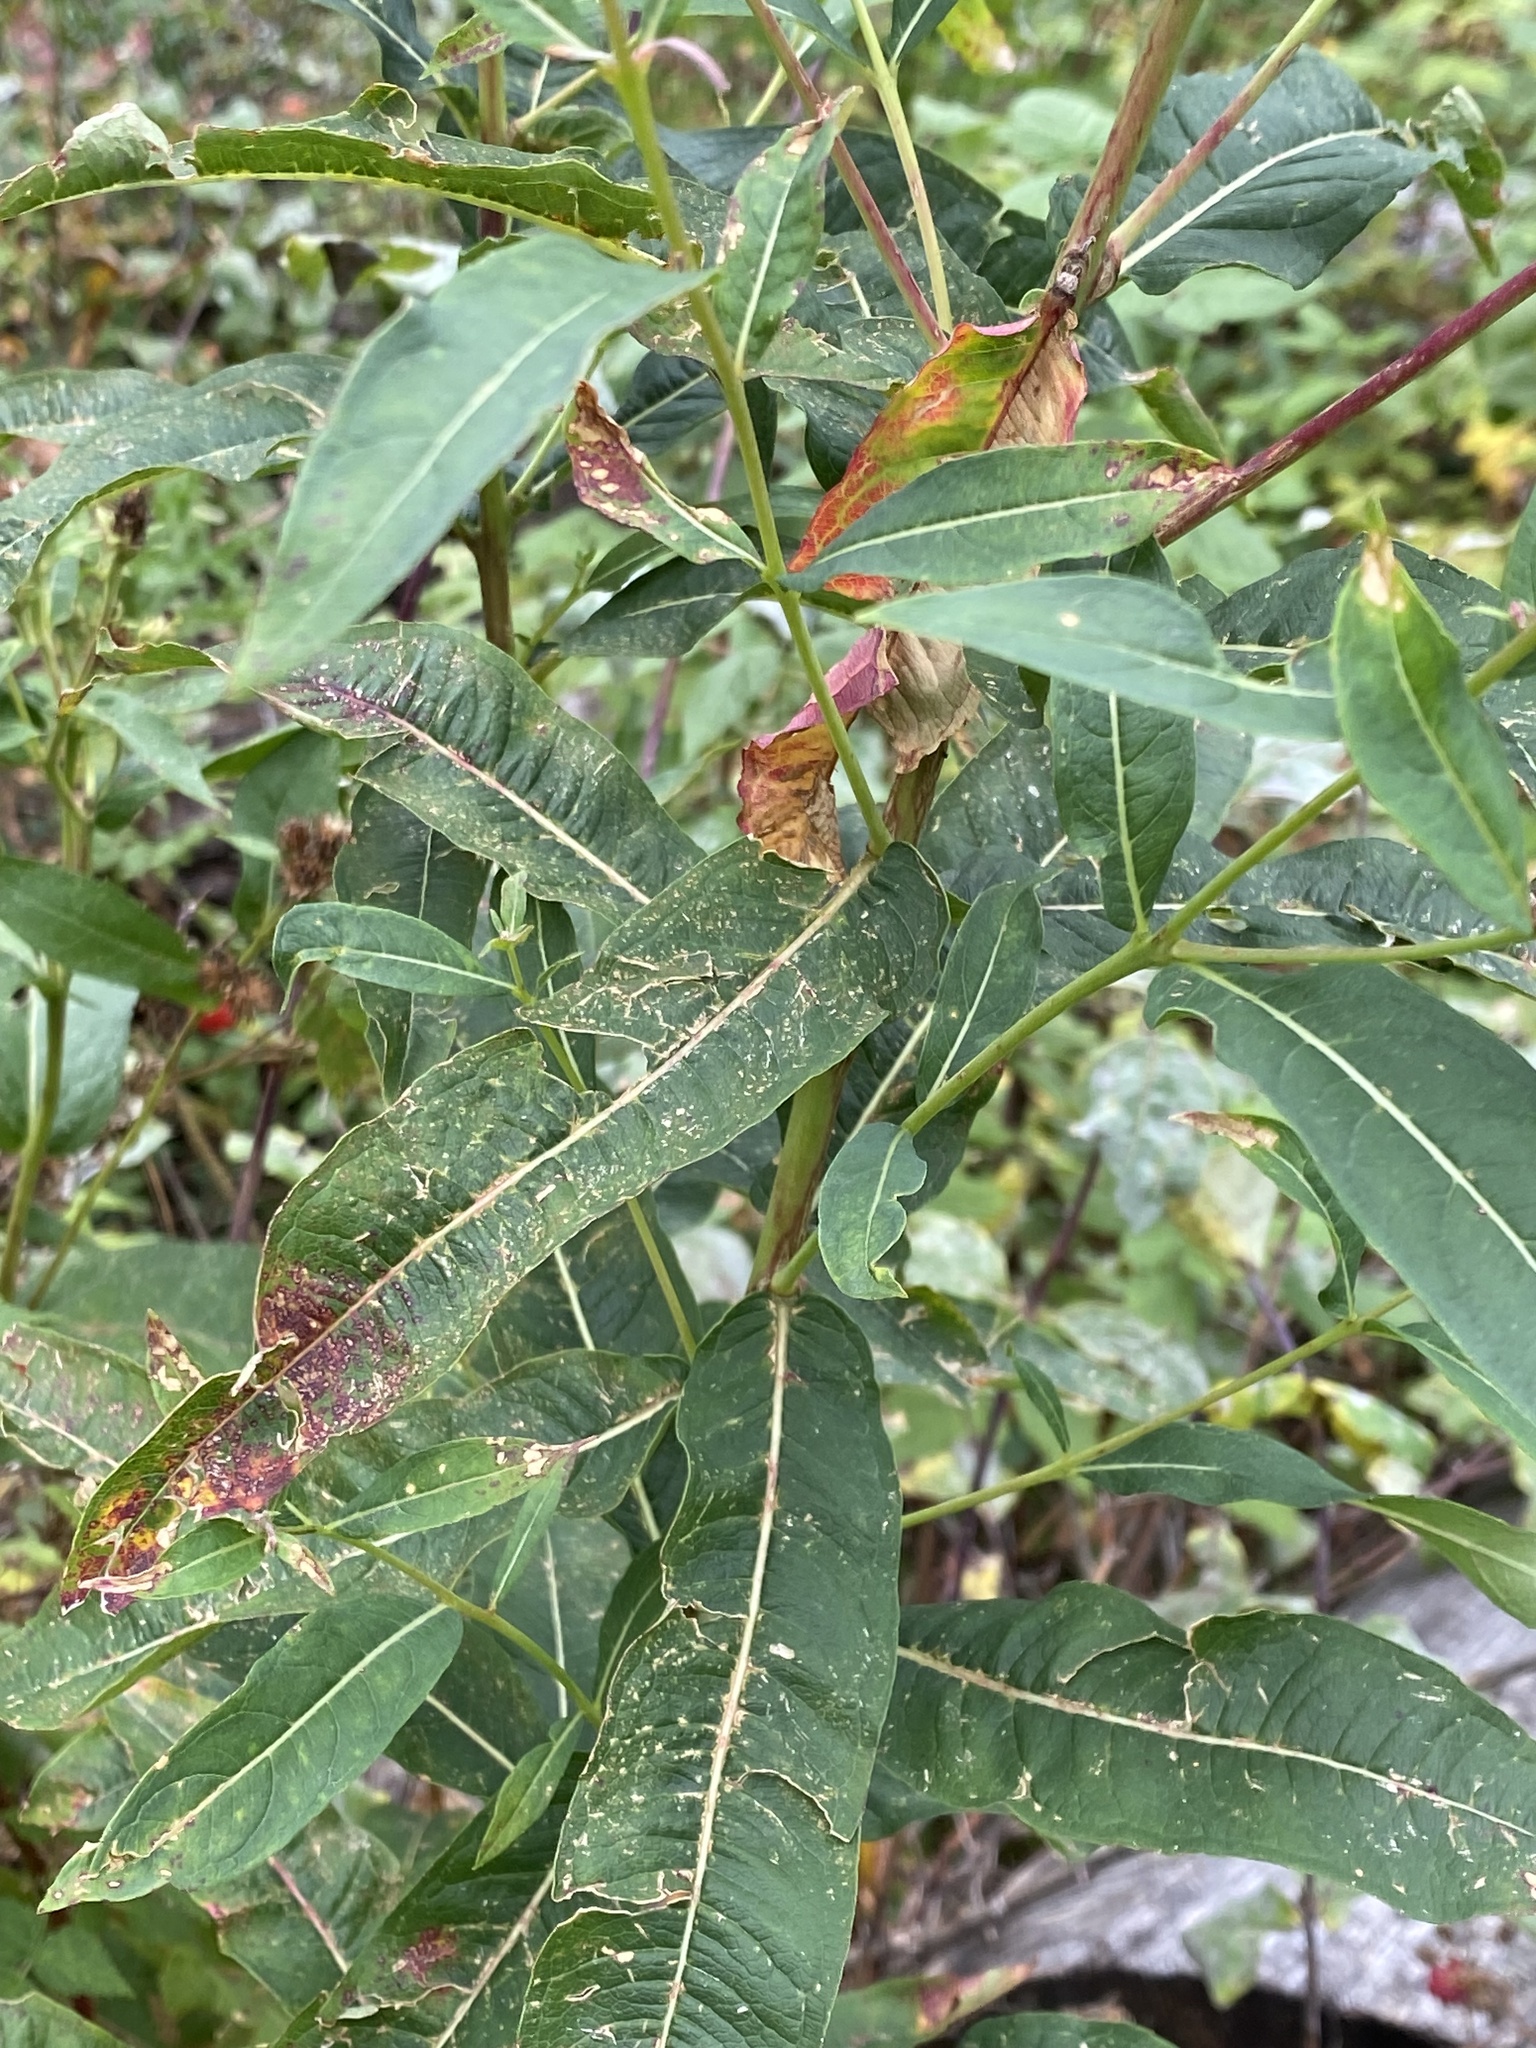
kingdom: Plantae
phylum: Tracheophyta
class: Magnoliopsida
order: Myrtales
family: Onagraceae
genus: Chamaenerion
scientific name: Chamaenerion angustifolium
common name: Fireweed
